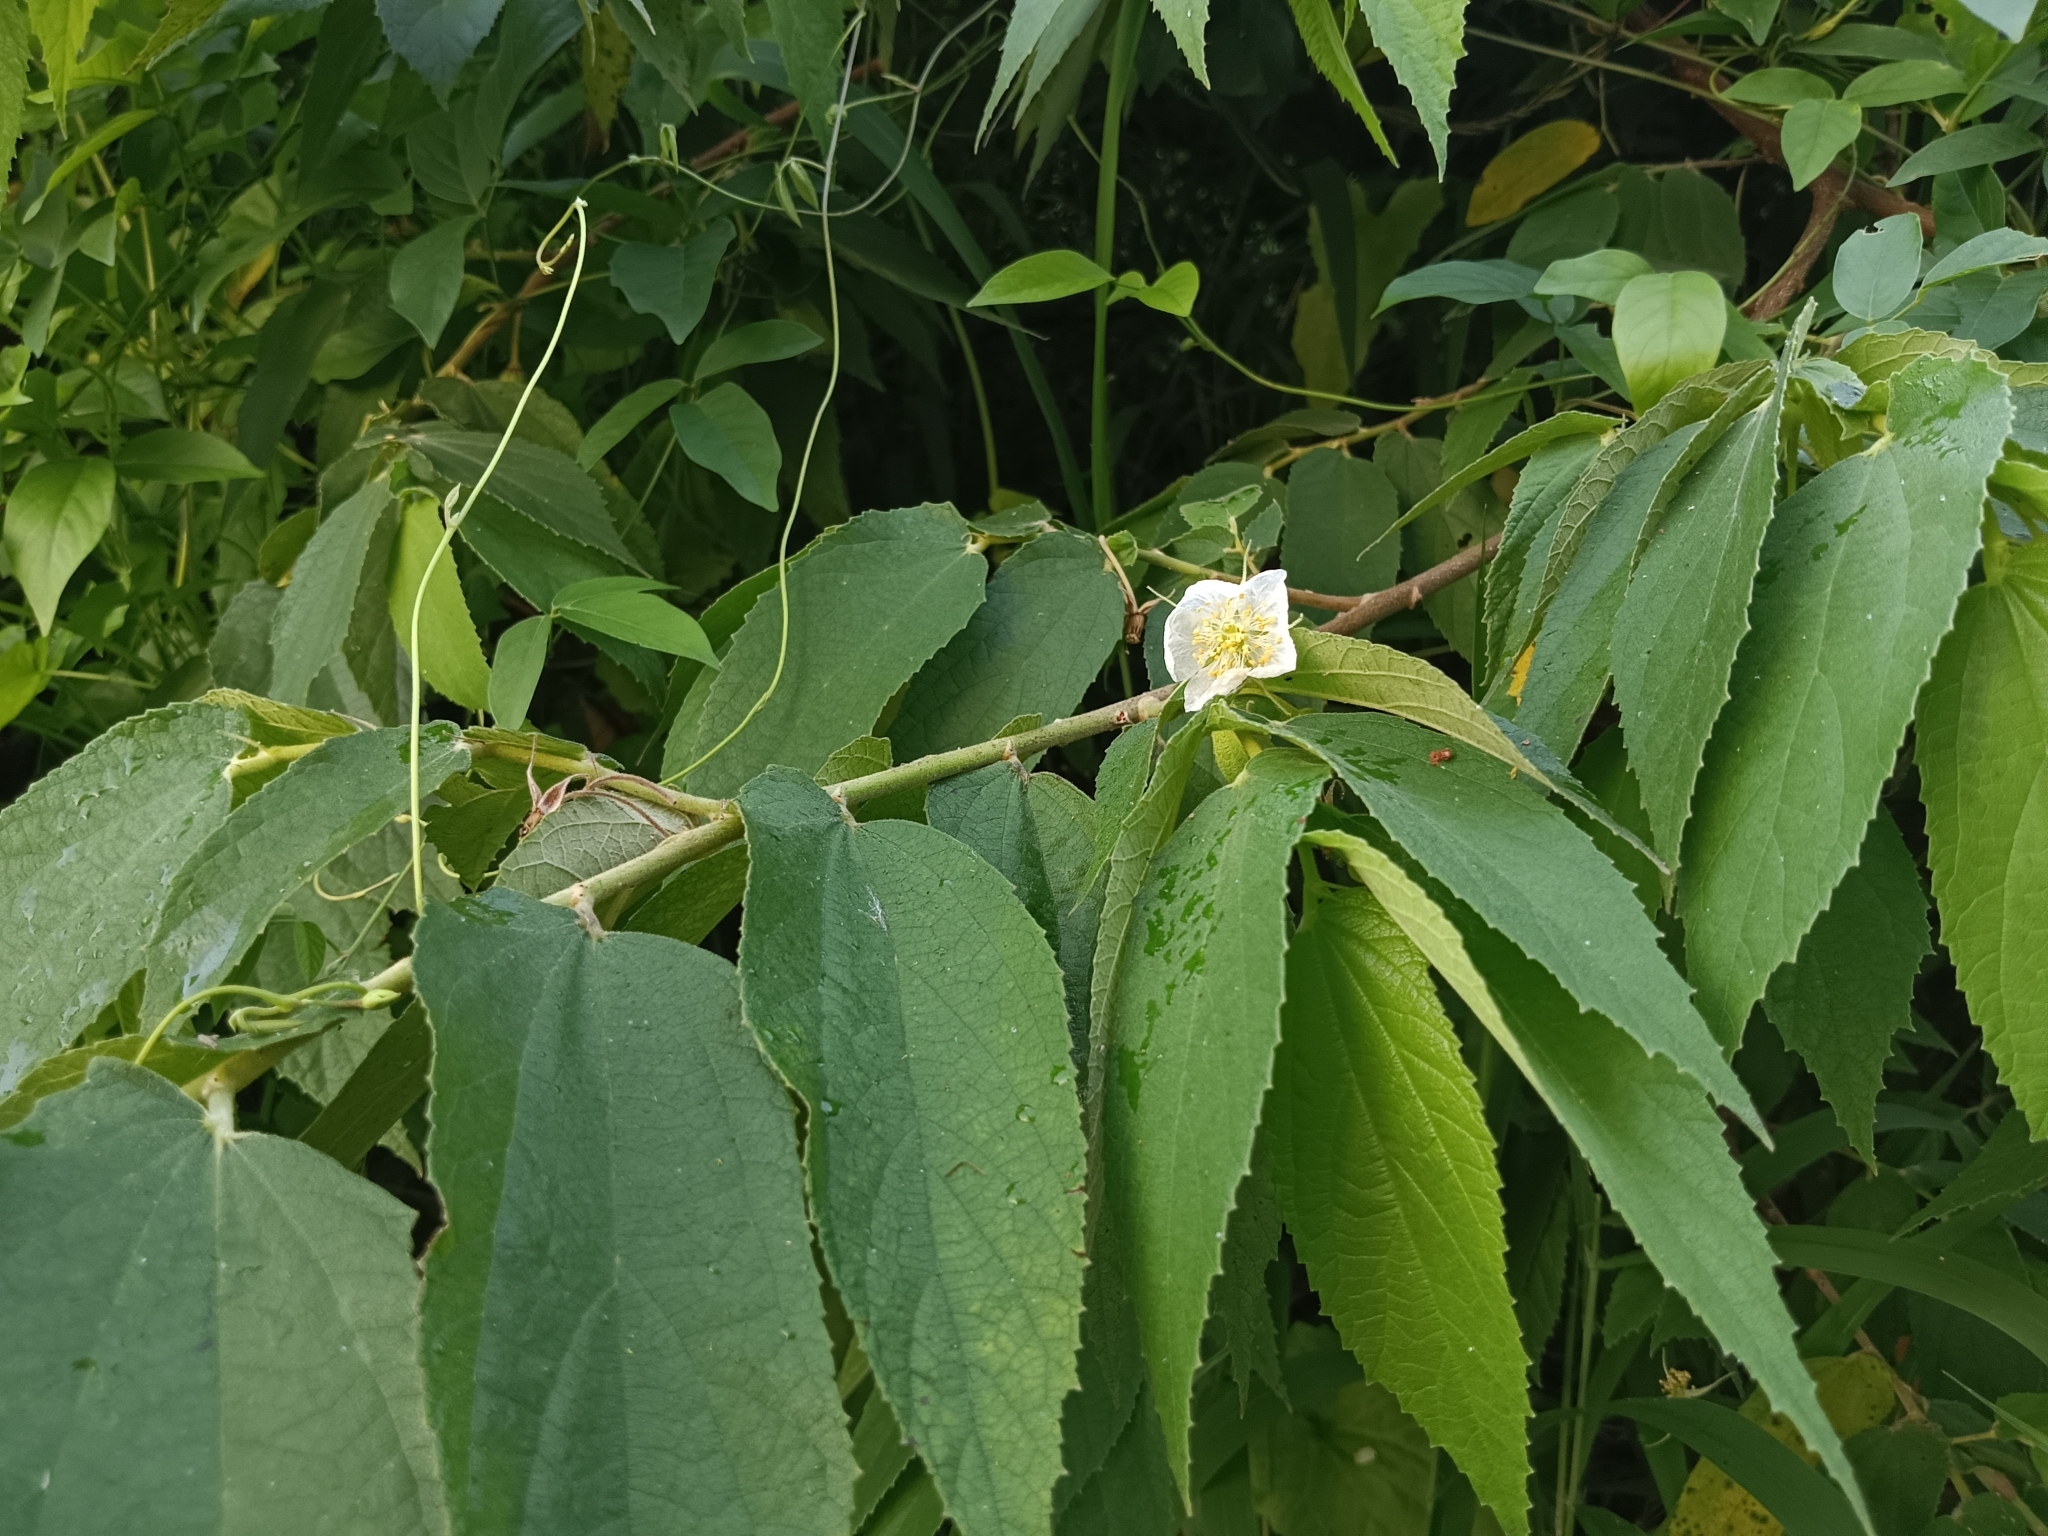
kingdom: Plantae
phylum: Tracheophyta
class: Magnoliopsida
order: Malvales
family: Muntingiaceae
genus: Muntingia
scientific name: Muntingia calabura
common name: Strawberrytree
